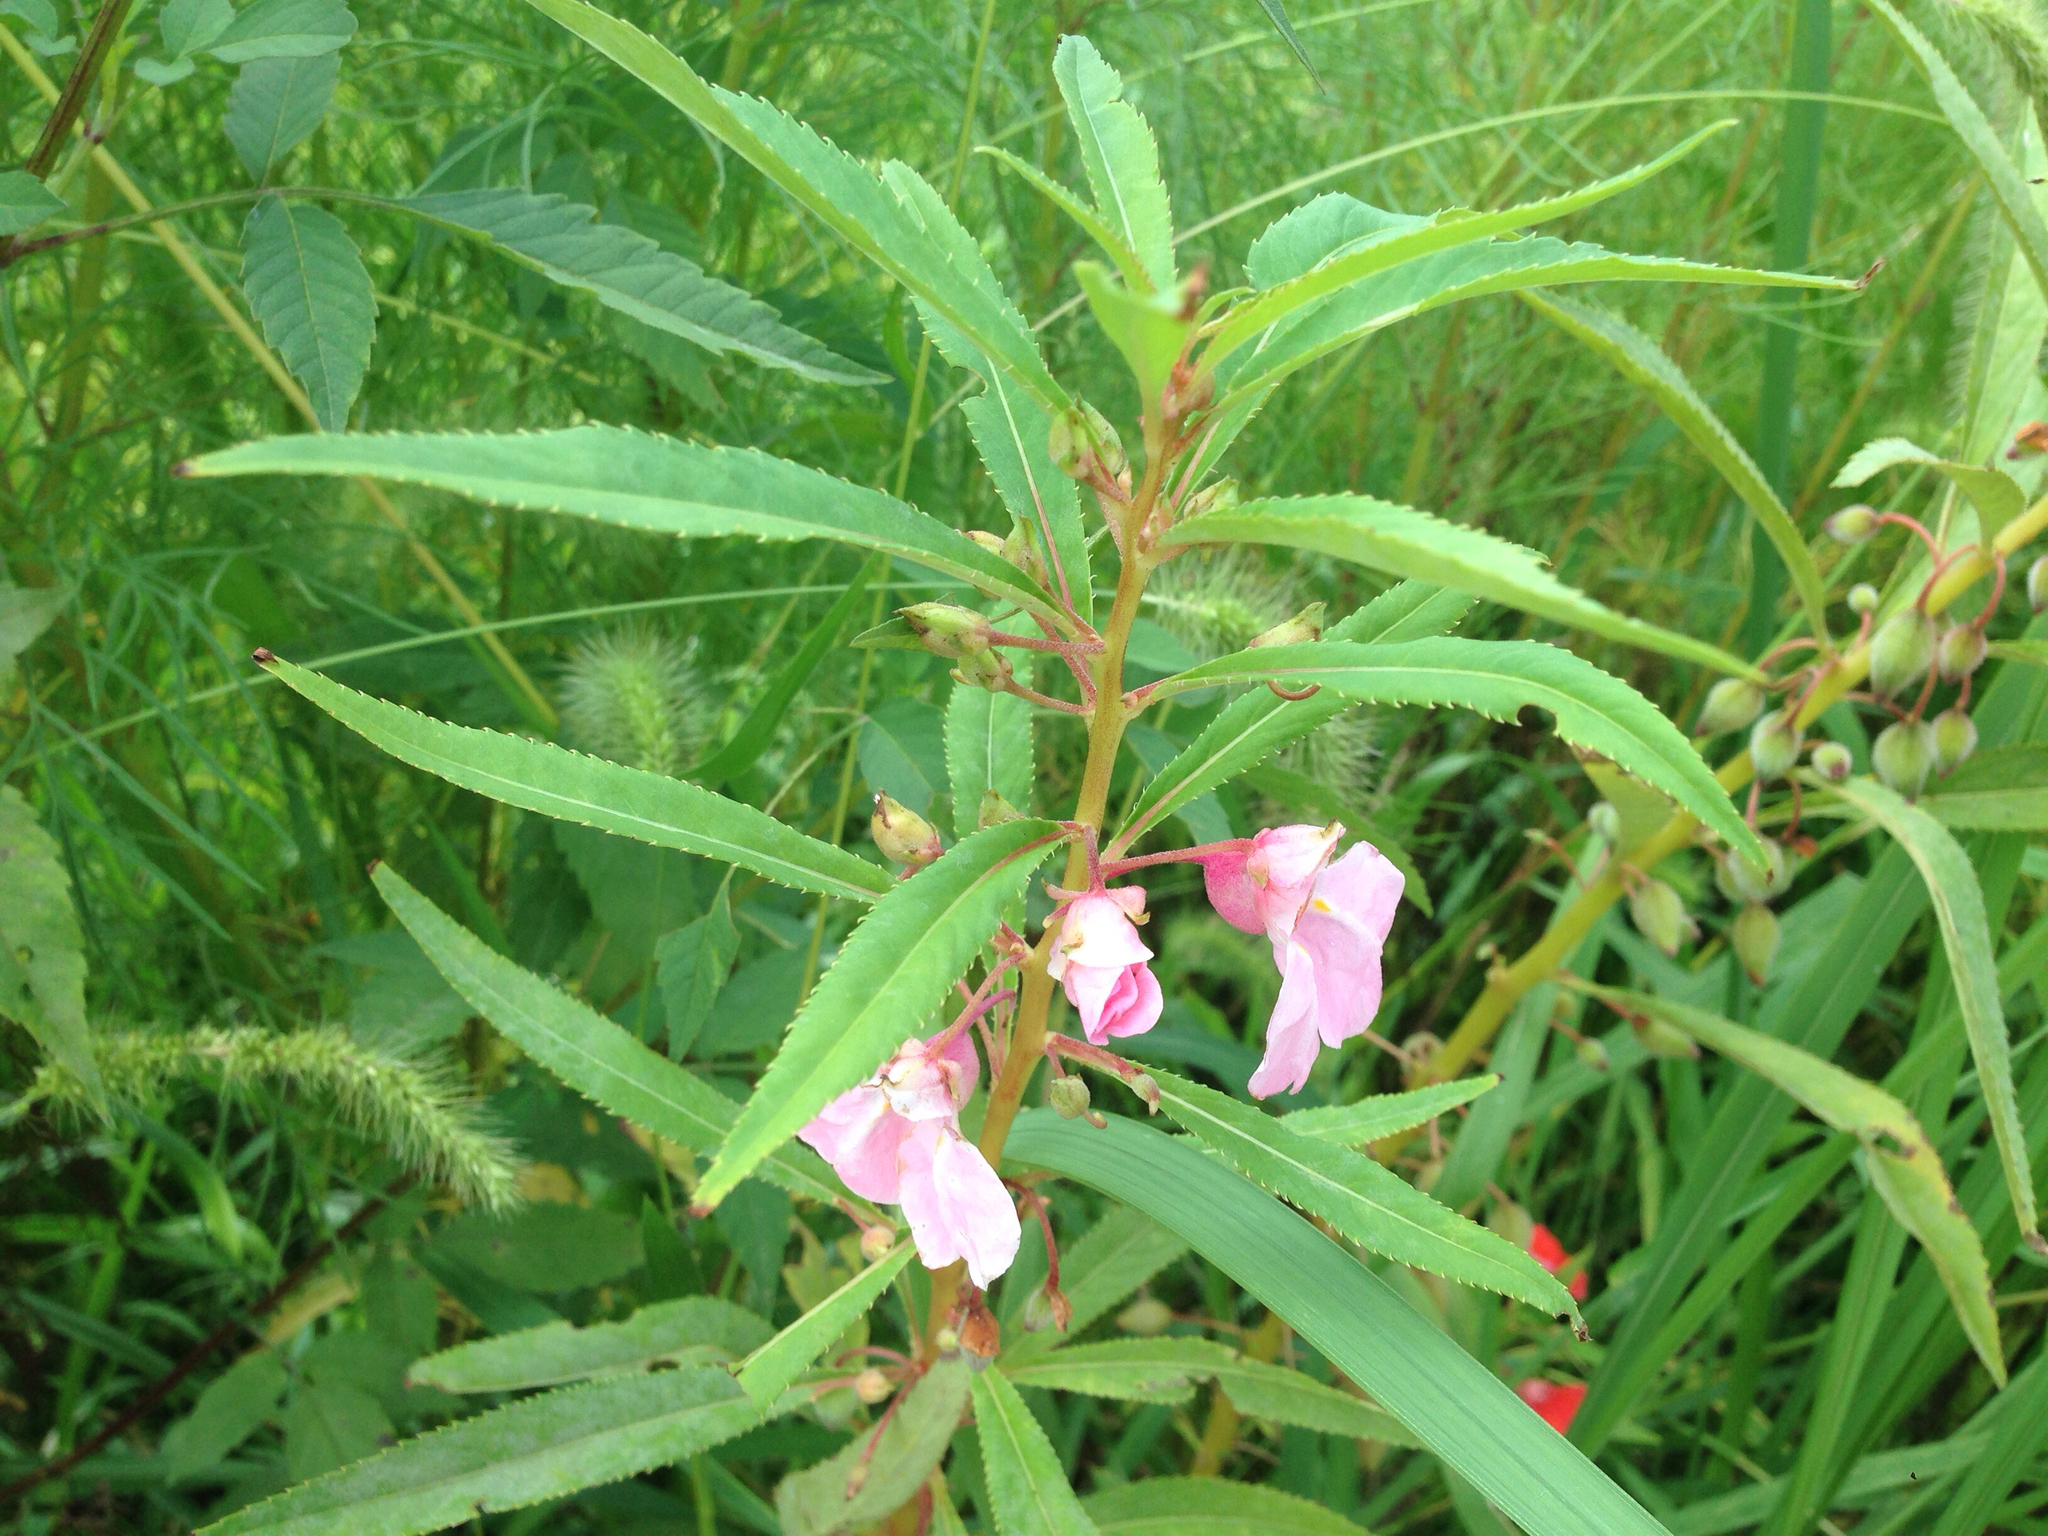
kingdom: Plantae
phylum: Tracheophyta
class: Magnoliopsida
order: Ericales
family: Balsaminaceae
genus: Impatiens
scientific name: Impatiens balsamina
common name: Balsam
